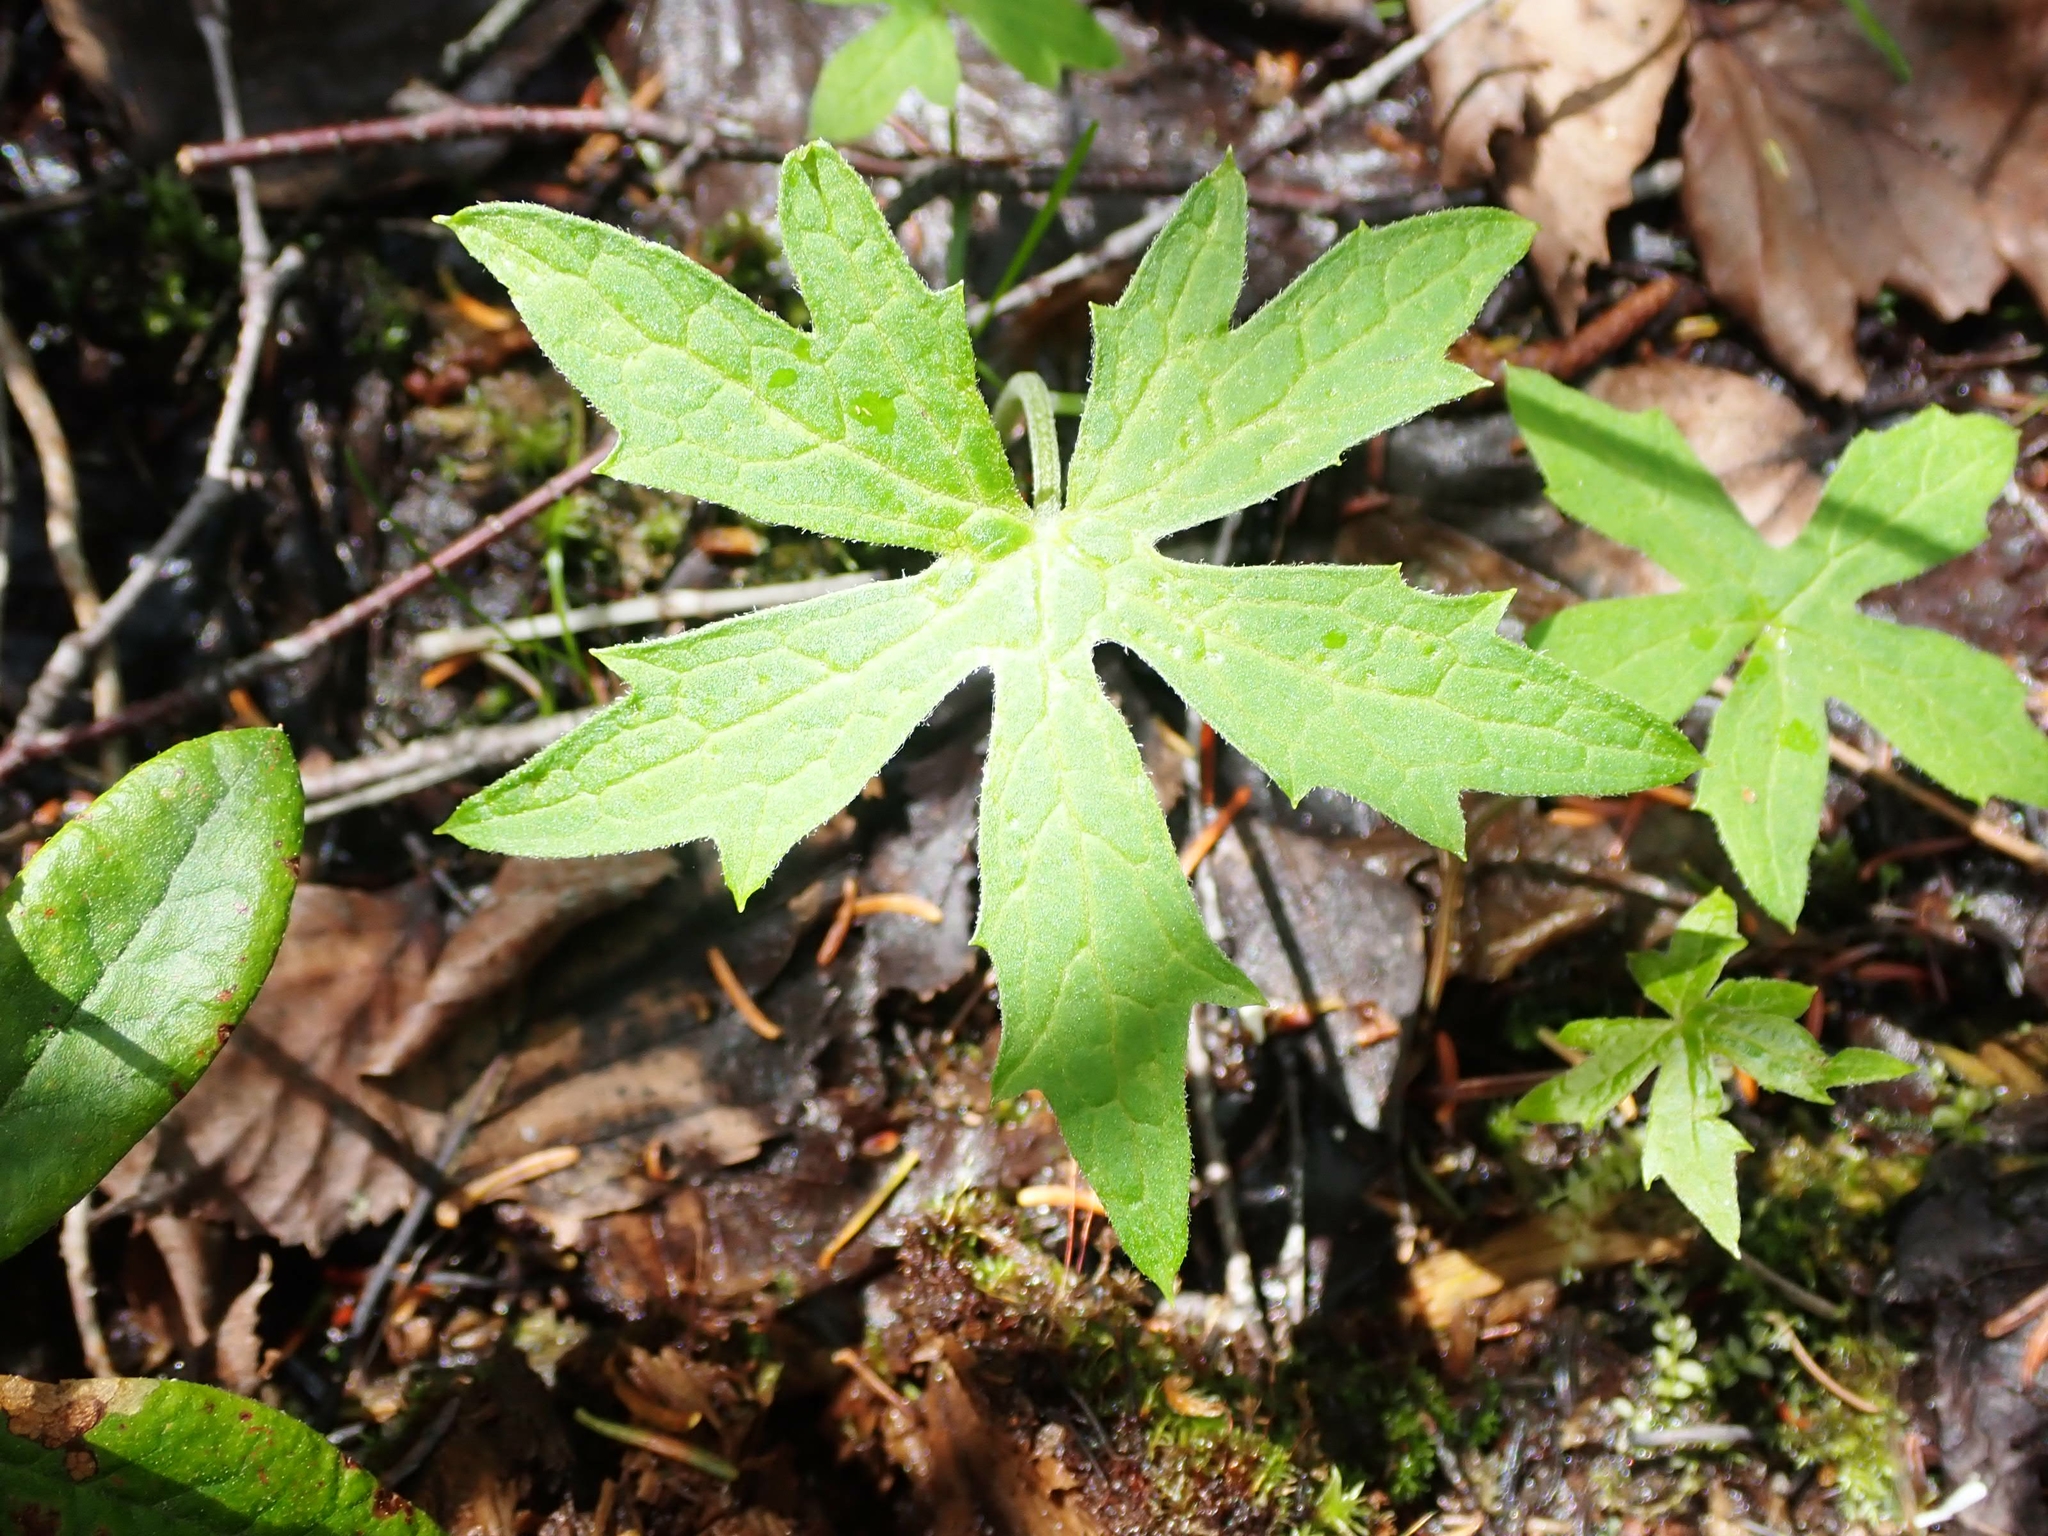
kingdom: Plantae
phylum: Tracheophyta
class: Magnoliopsida
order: Asterales
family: Asteraceae
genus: Petasites
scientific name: Petasites frigidus
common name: Arctic butterbur
